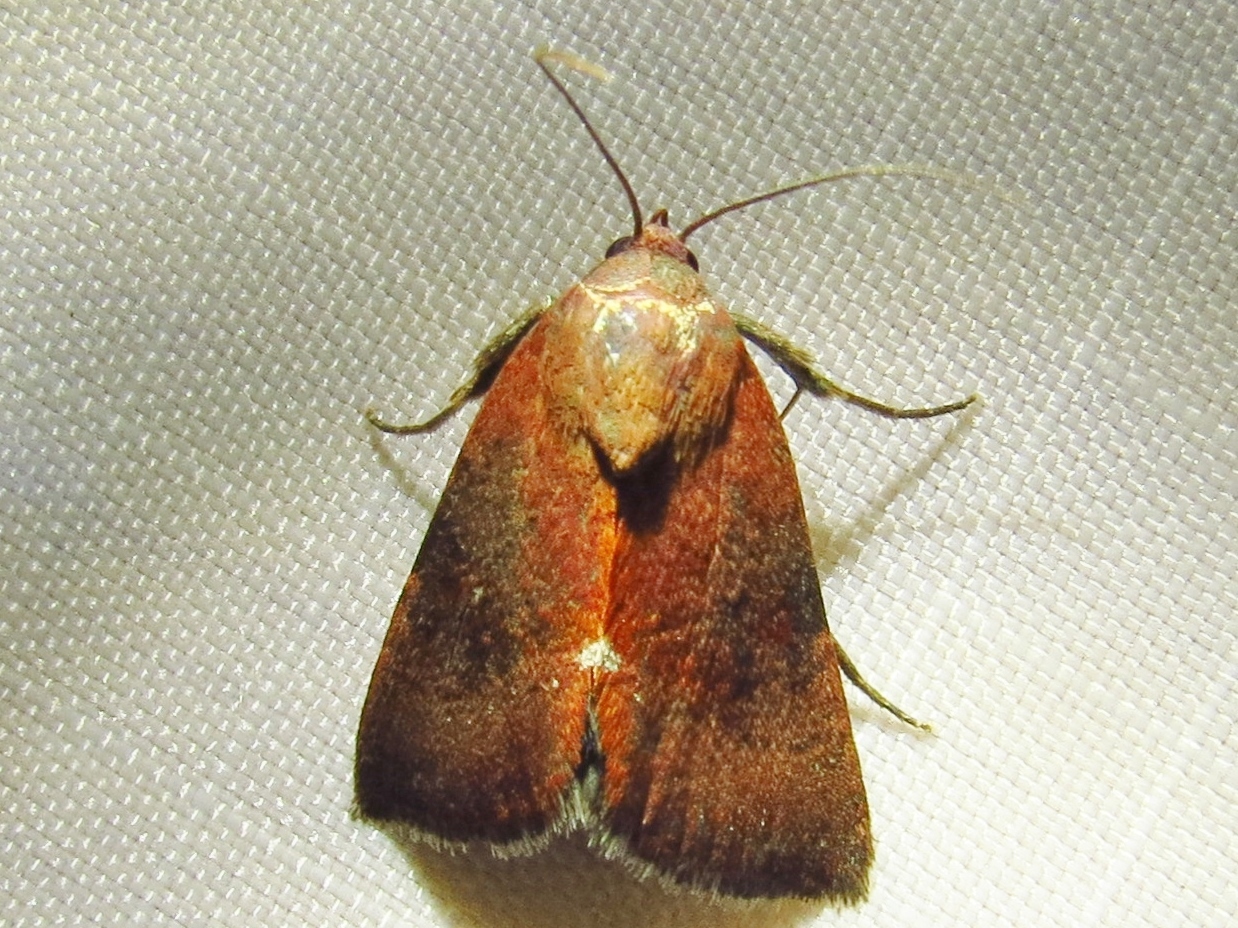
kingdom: Animalia
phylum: Arthropoda
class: Insecta
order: Lepidoptera
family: Noctuidae
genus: Galgula
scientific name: Galgula partita
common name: Wedgeling
